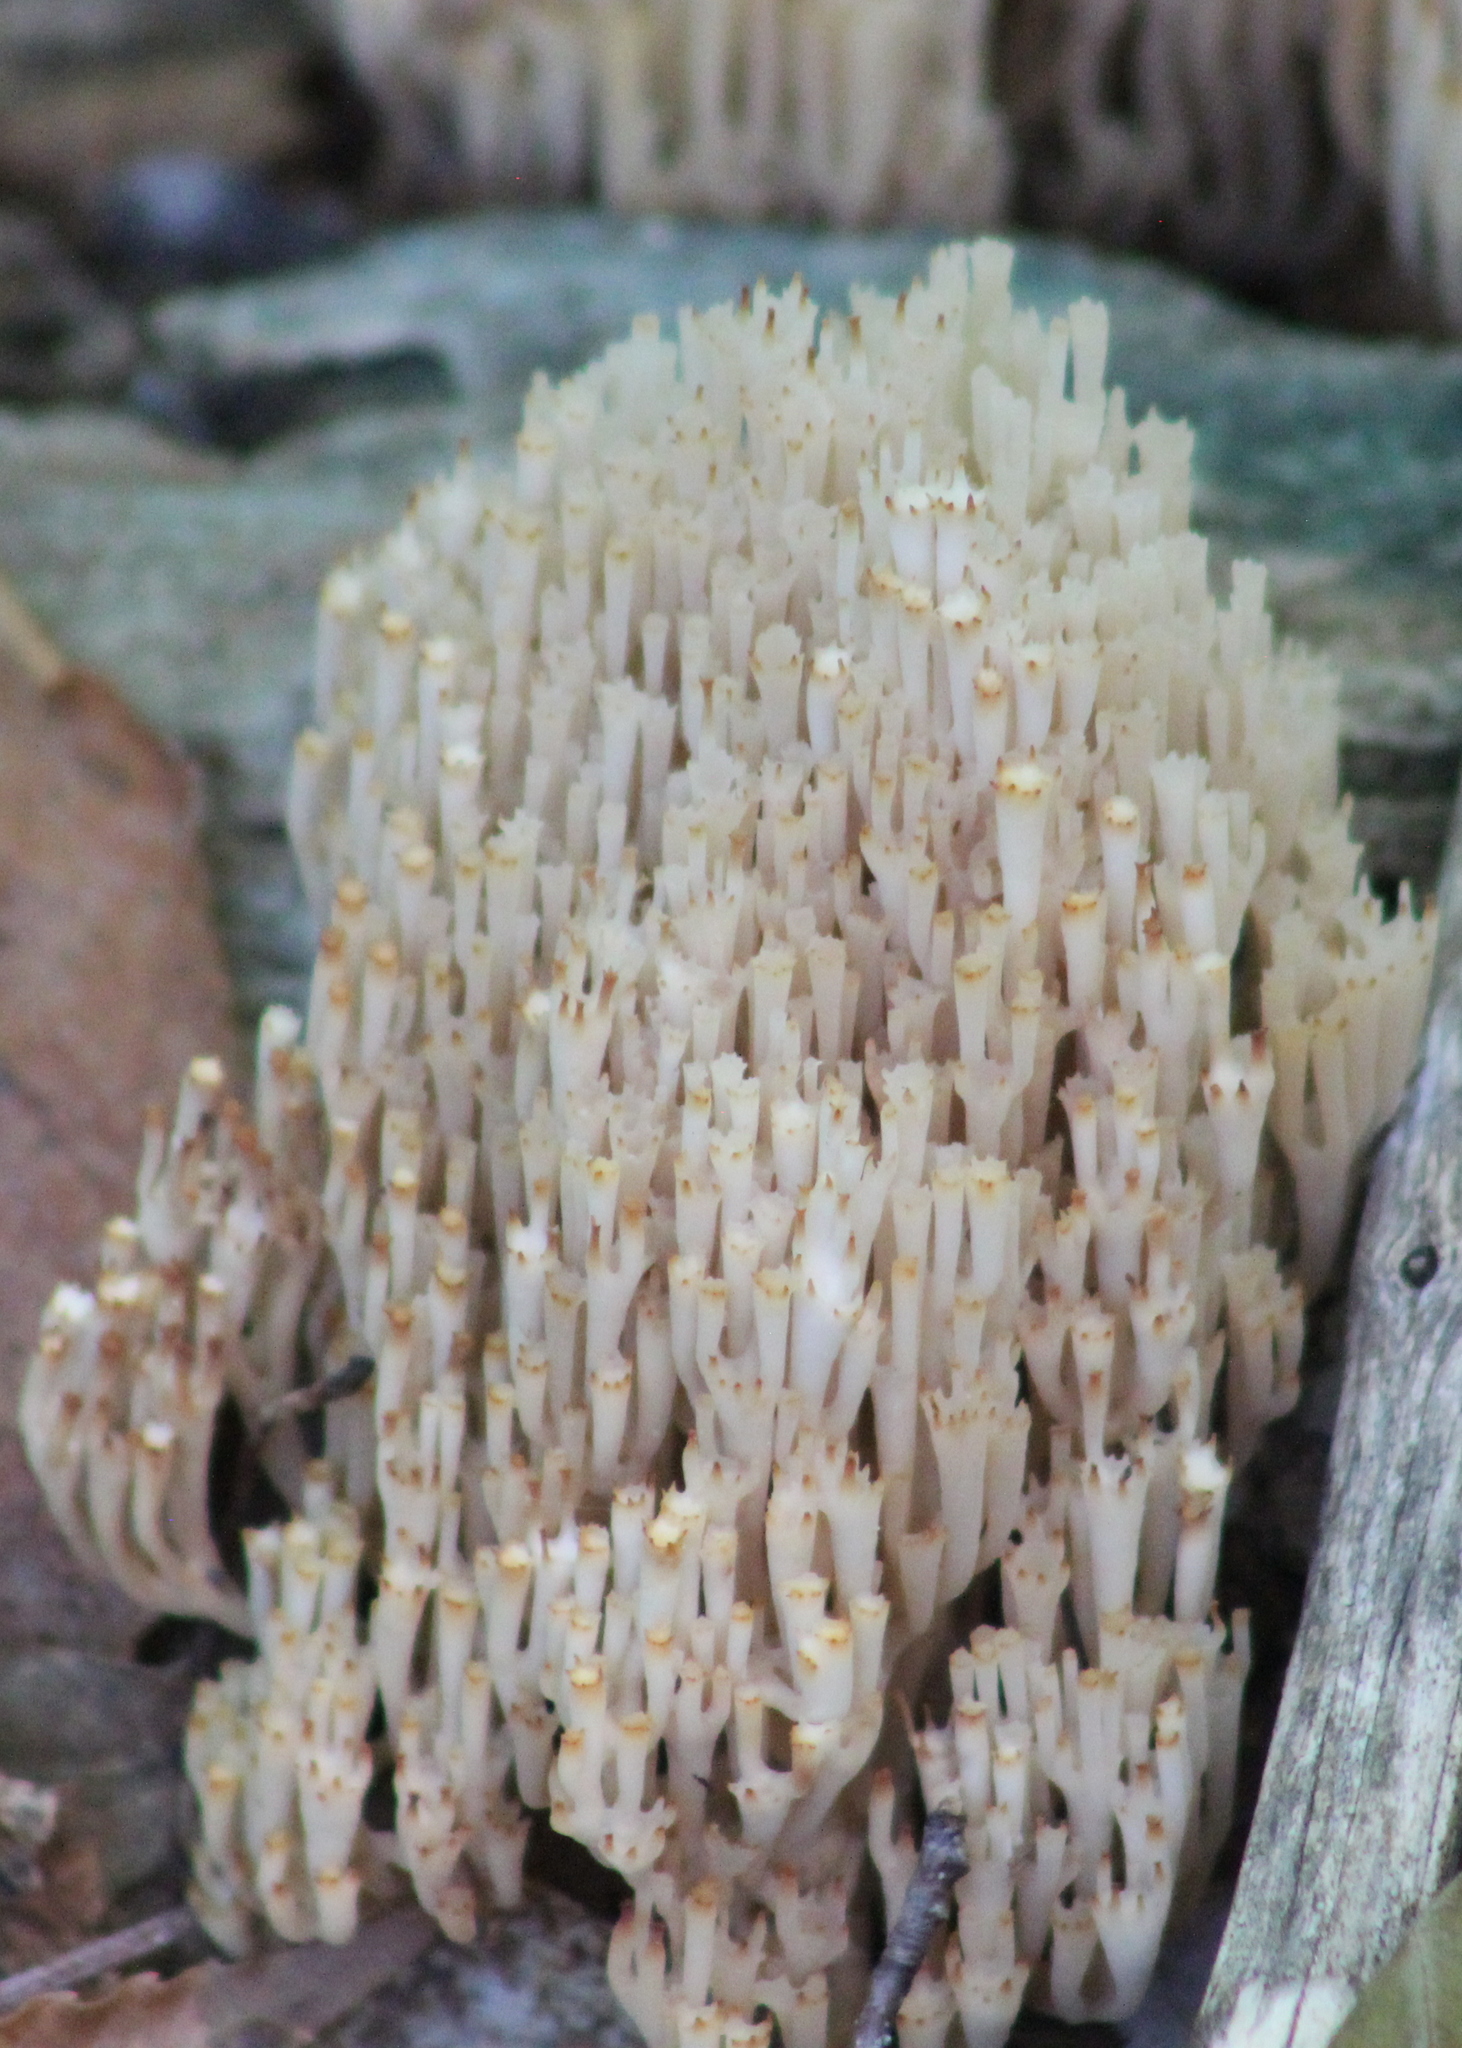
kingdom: Fungi
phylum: Basidiomycota
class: Agaricomycetes
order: Russulales
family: Auriscalpiaceae
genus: Artomyces
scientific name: Artomyces pyxidatus
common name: Crown-tipped coral fungus
